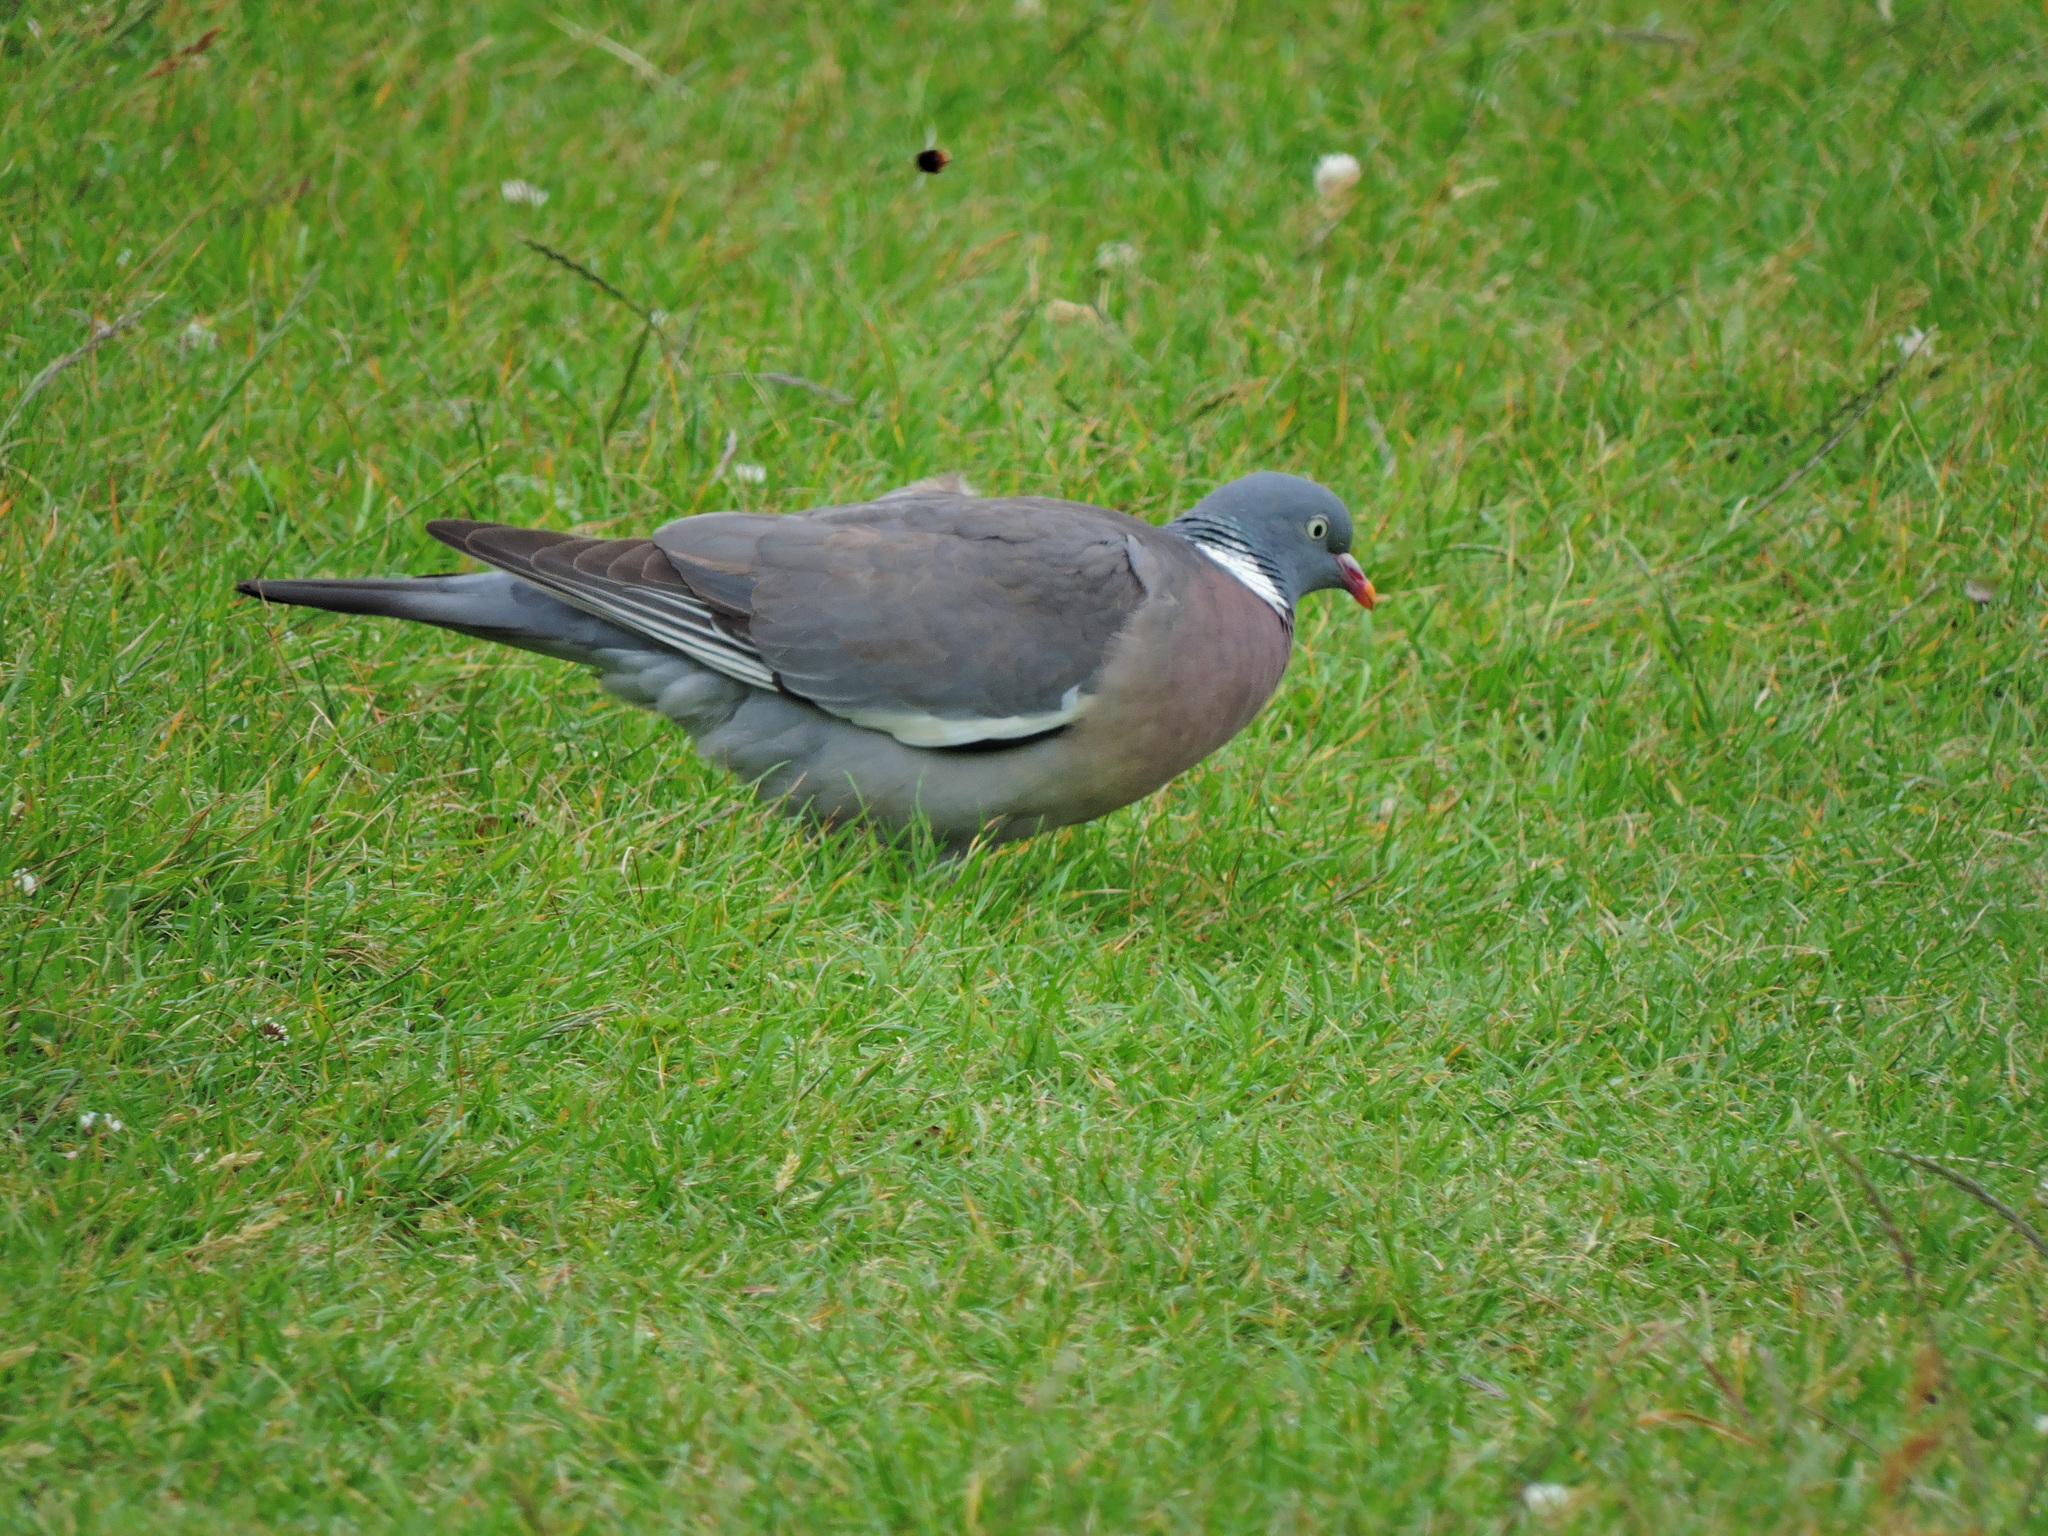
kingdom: Animalia
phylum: Chordata
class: Aves
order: Columbiformes
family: Columbidae
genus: Columba
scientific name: Columba palumbus
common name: Common wood pigeon
